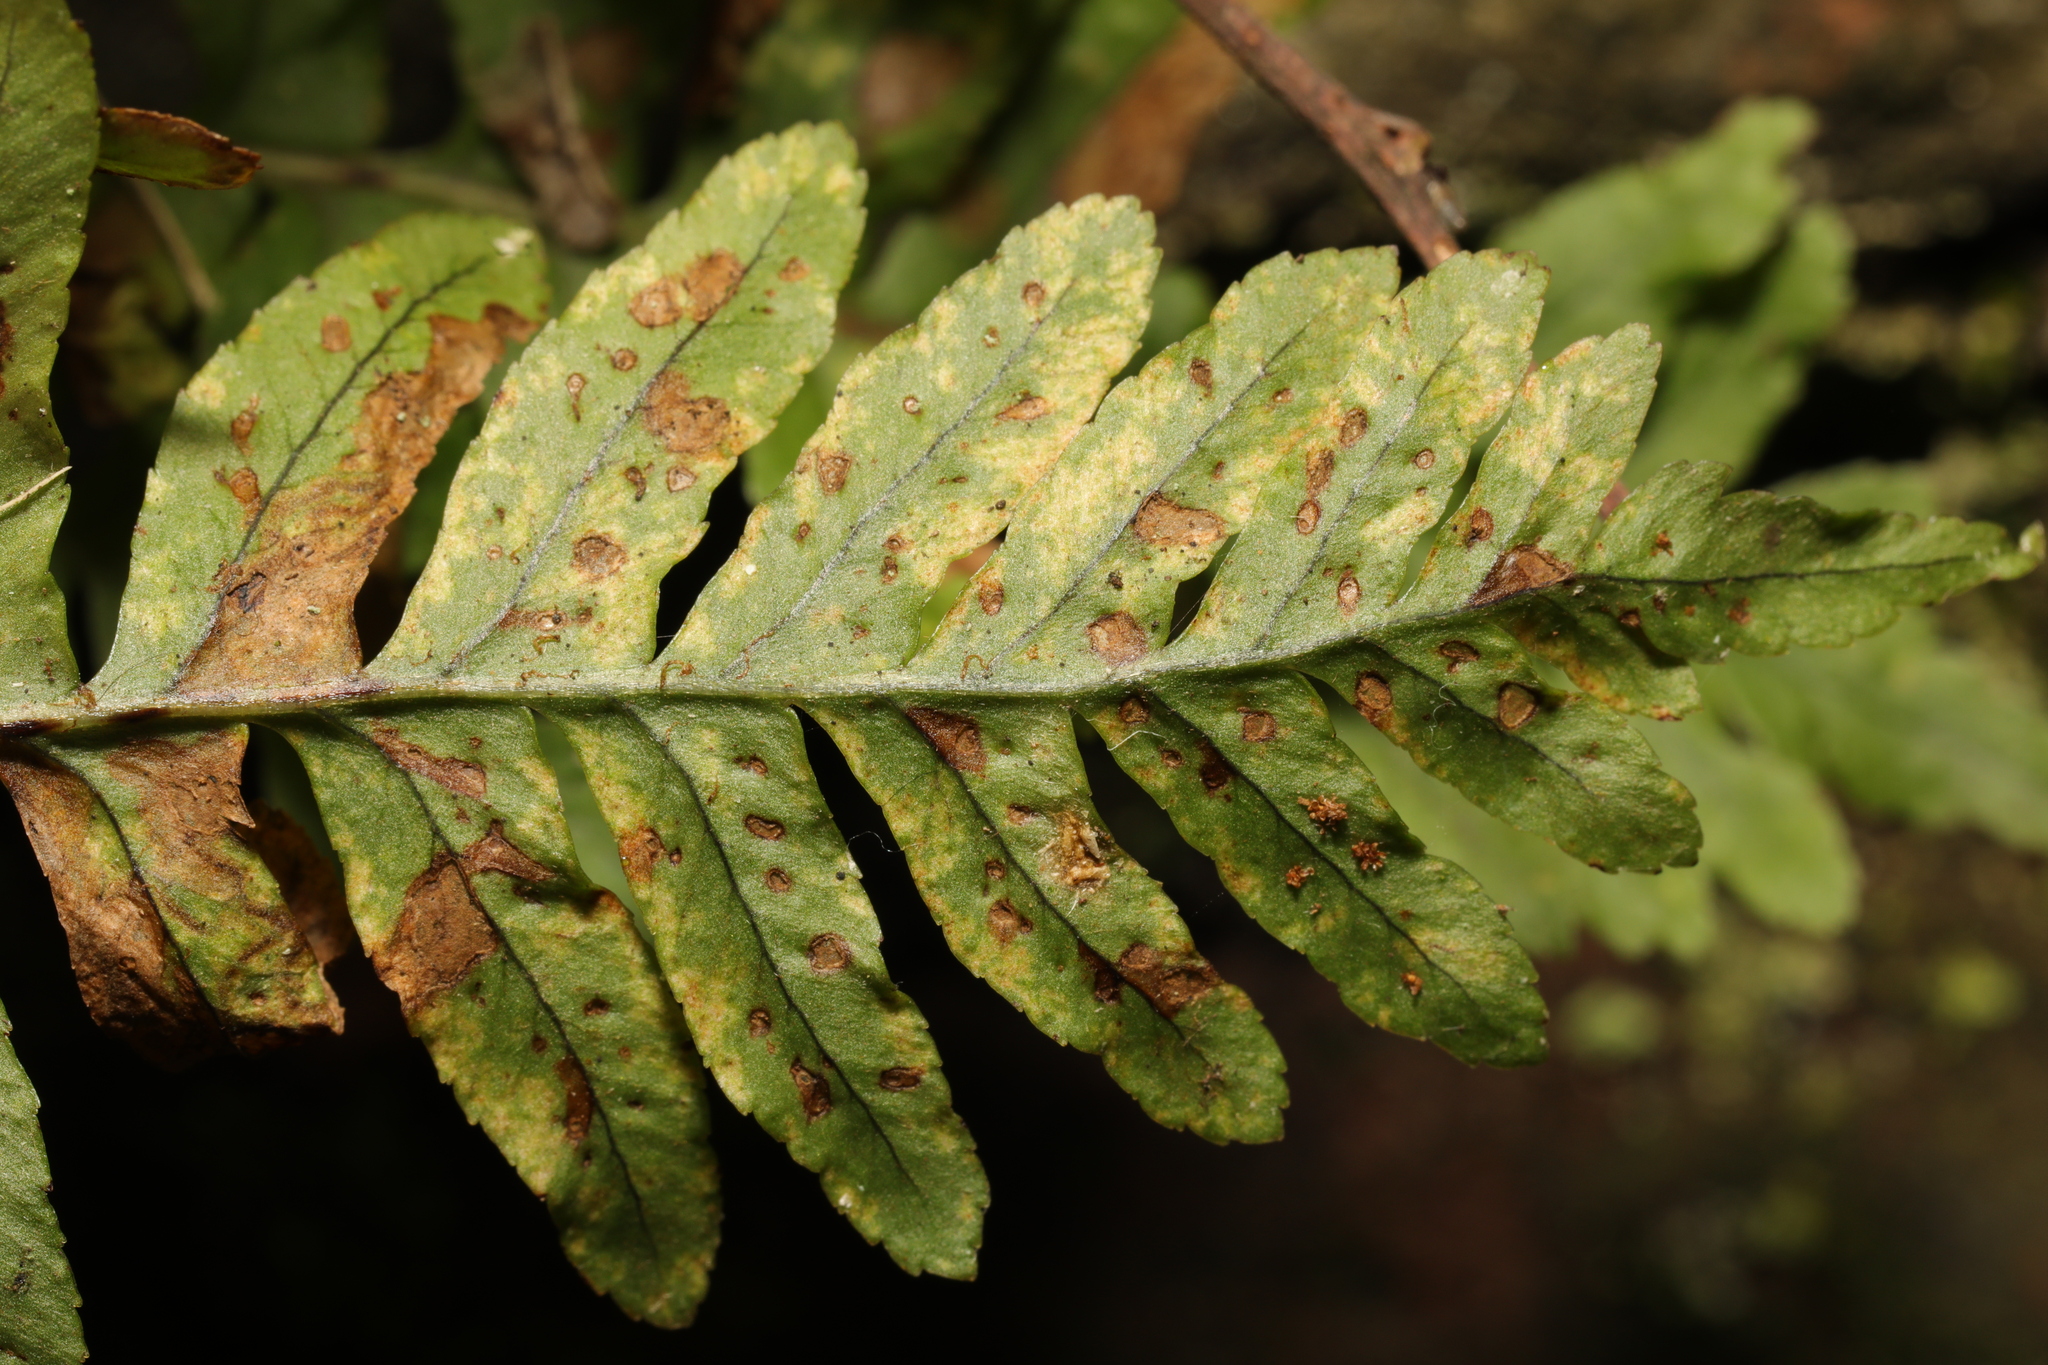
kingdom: Plantae
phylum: Tracheophyta
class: Polypodiopsida
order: Polypodiales
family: Polypodiaceae
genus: Polypodium
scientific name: Polypodium vulgare
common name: Common polypody
